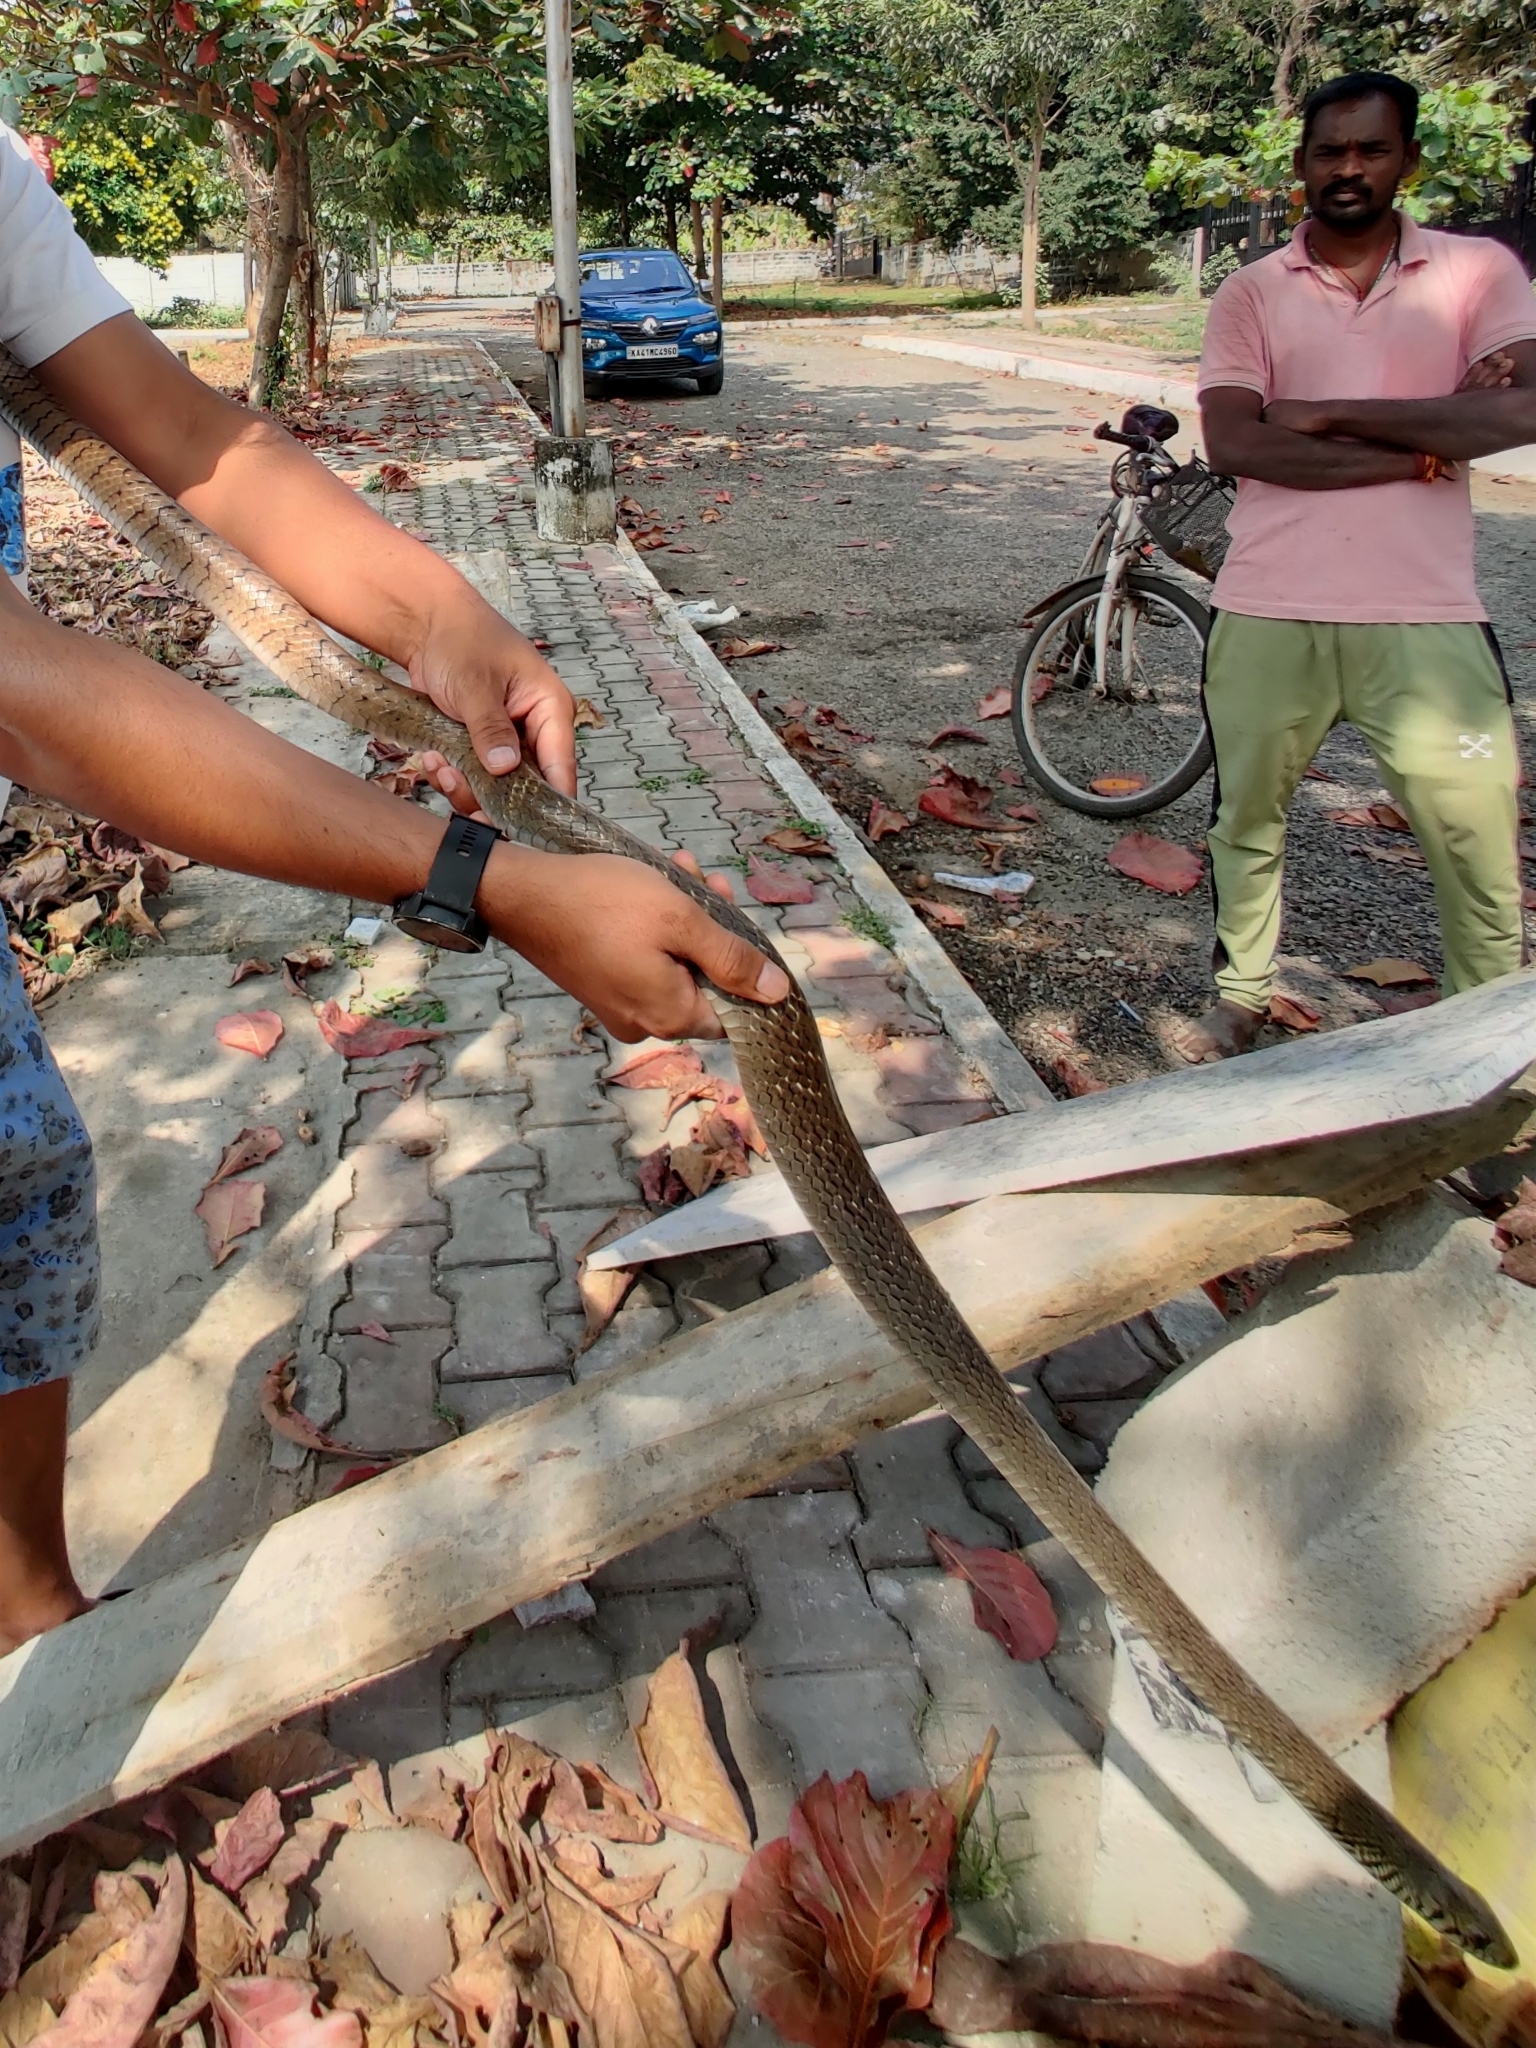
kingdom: Animalia
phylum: Chordata
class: Squamata
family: Colubridae
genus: Ptyas
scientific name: Ptyas mucosa
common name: Oriental ratsnake
